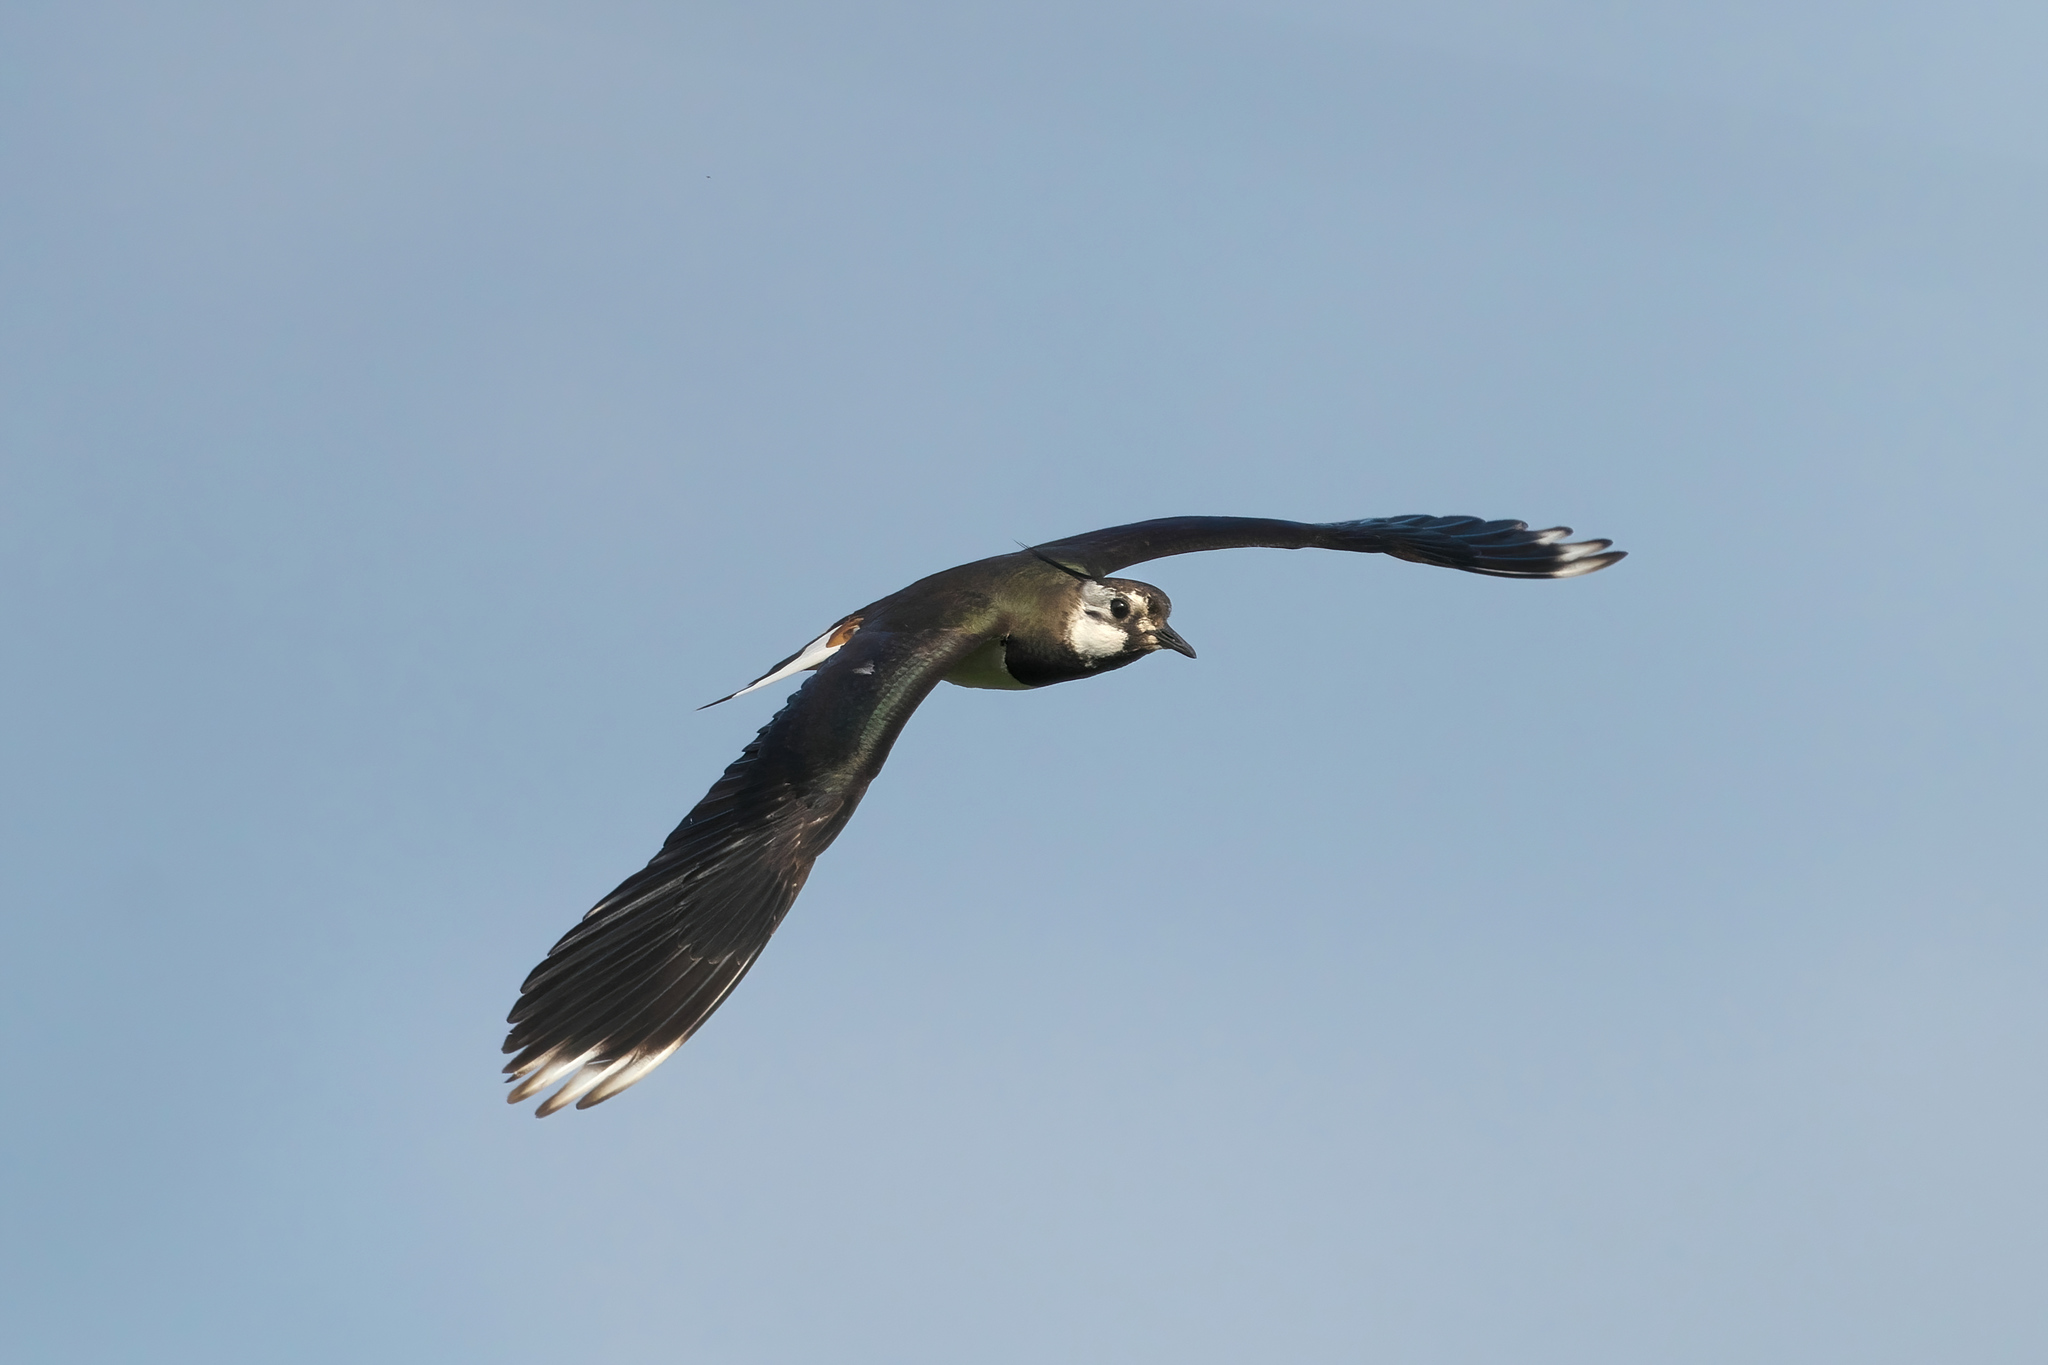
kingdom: Animalia
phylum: Chordata
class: Aves
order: Charadriiformes
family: Charadriidae
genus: Vanellus
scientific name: Vanellus vanellus
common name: Northern lapwing
